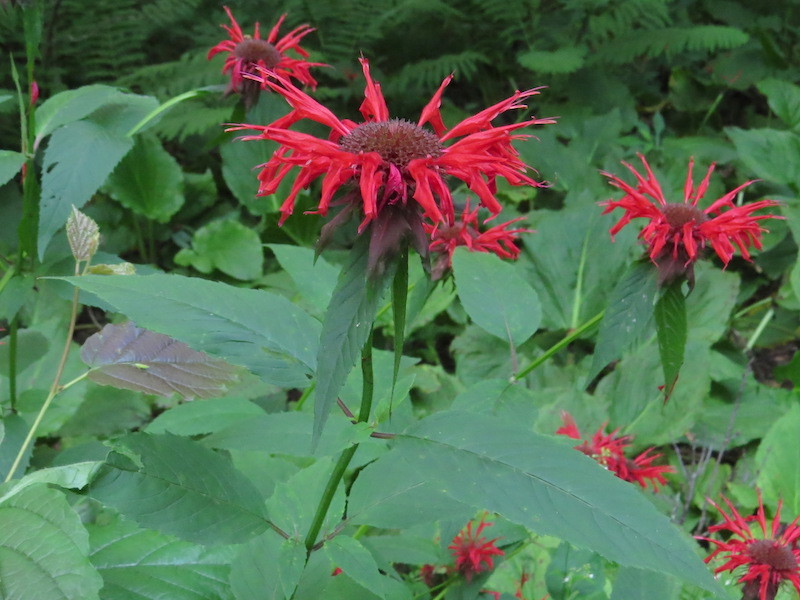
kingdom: Plantae
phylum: Tracheophyta
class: Magnoliopsida
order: Lamiales
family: Lamiaceae
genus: Monarda
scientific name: Monarda didyma
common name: Beebalm
